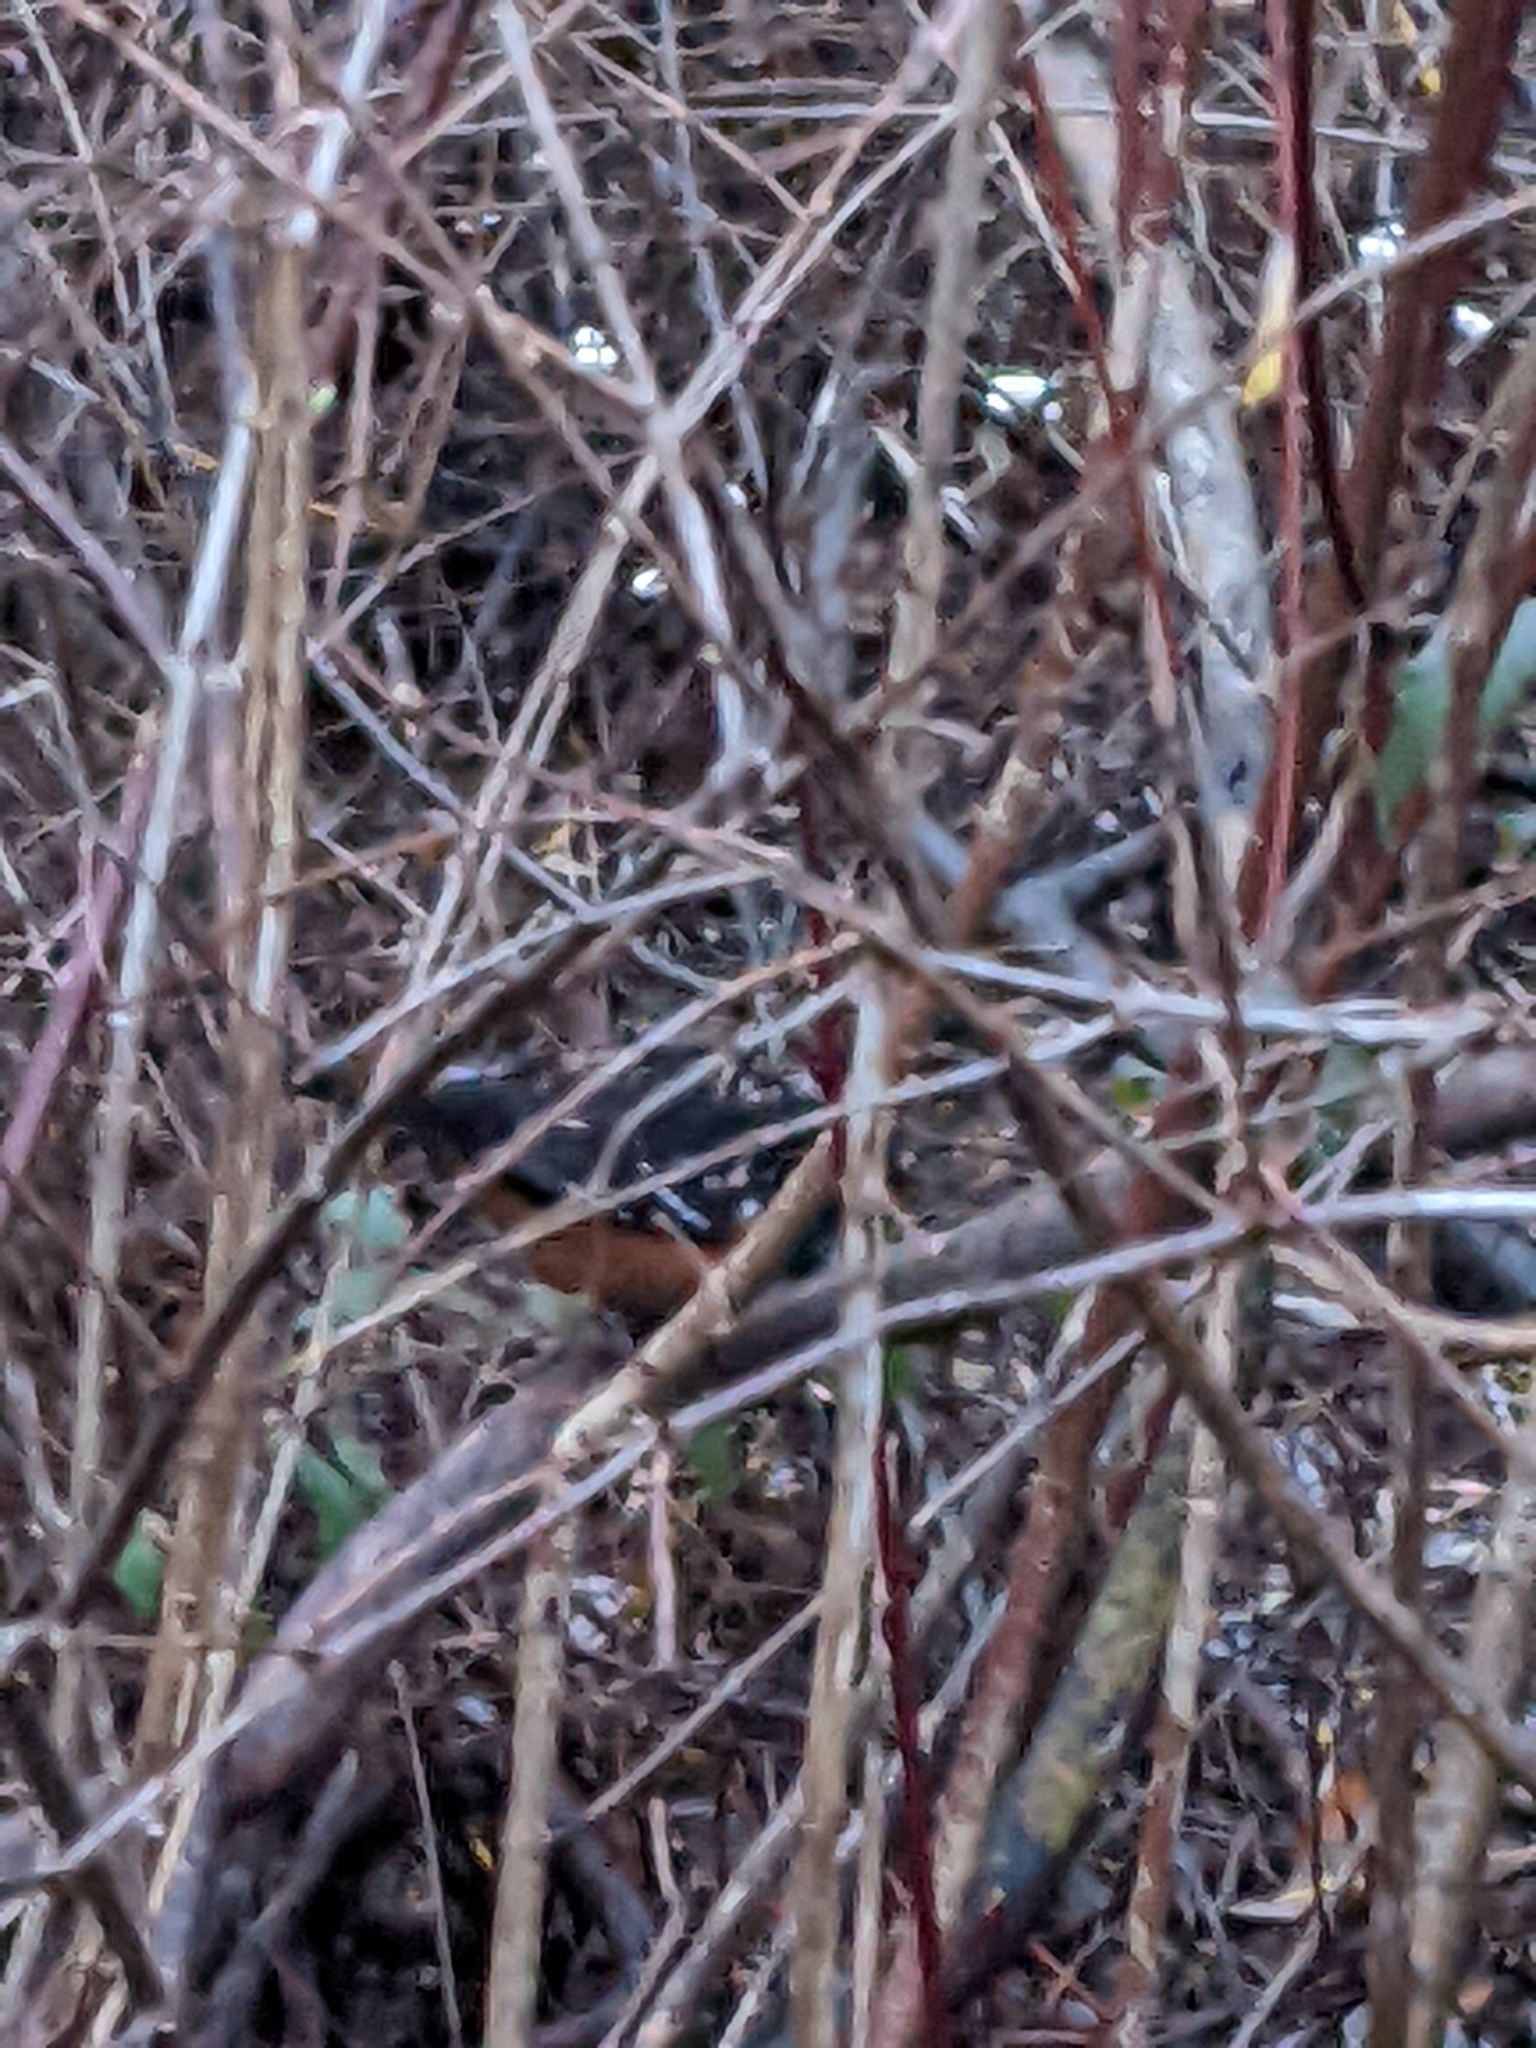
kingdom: Animalia
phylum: Chordata
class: Aves
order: Passeriformes
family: Passerellidae
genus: Pipilo
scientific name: Pipilo maculatus
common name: Spotted towhee
